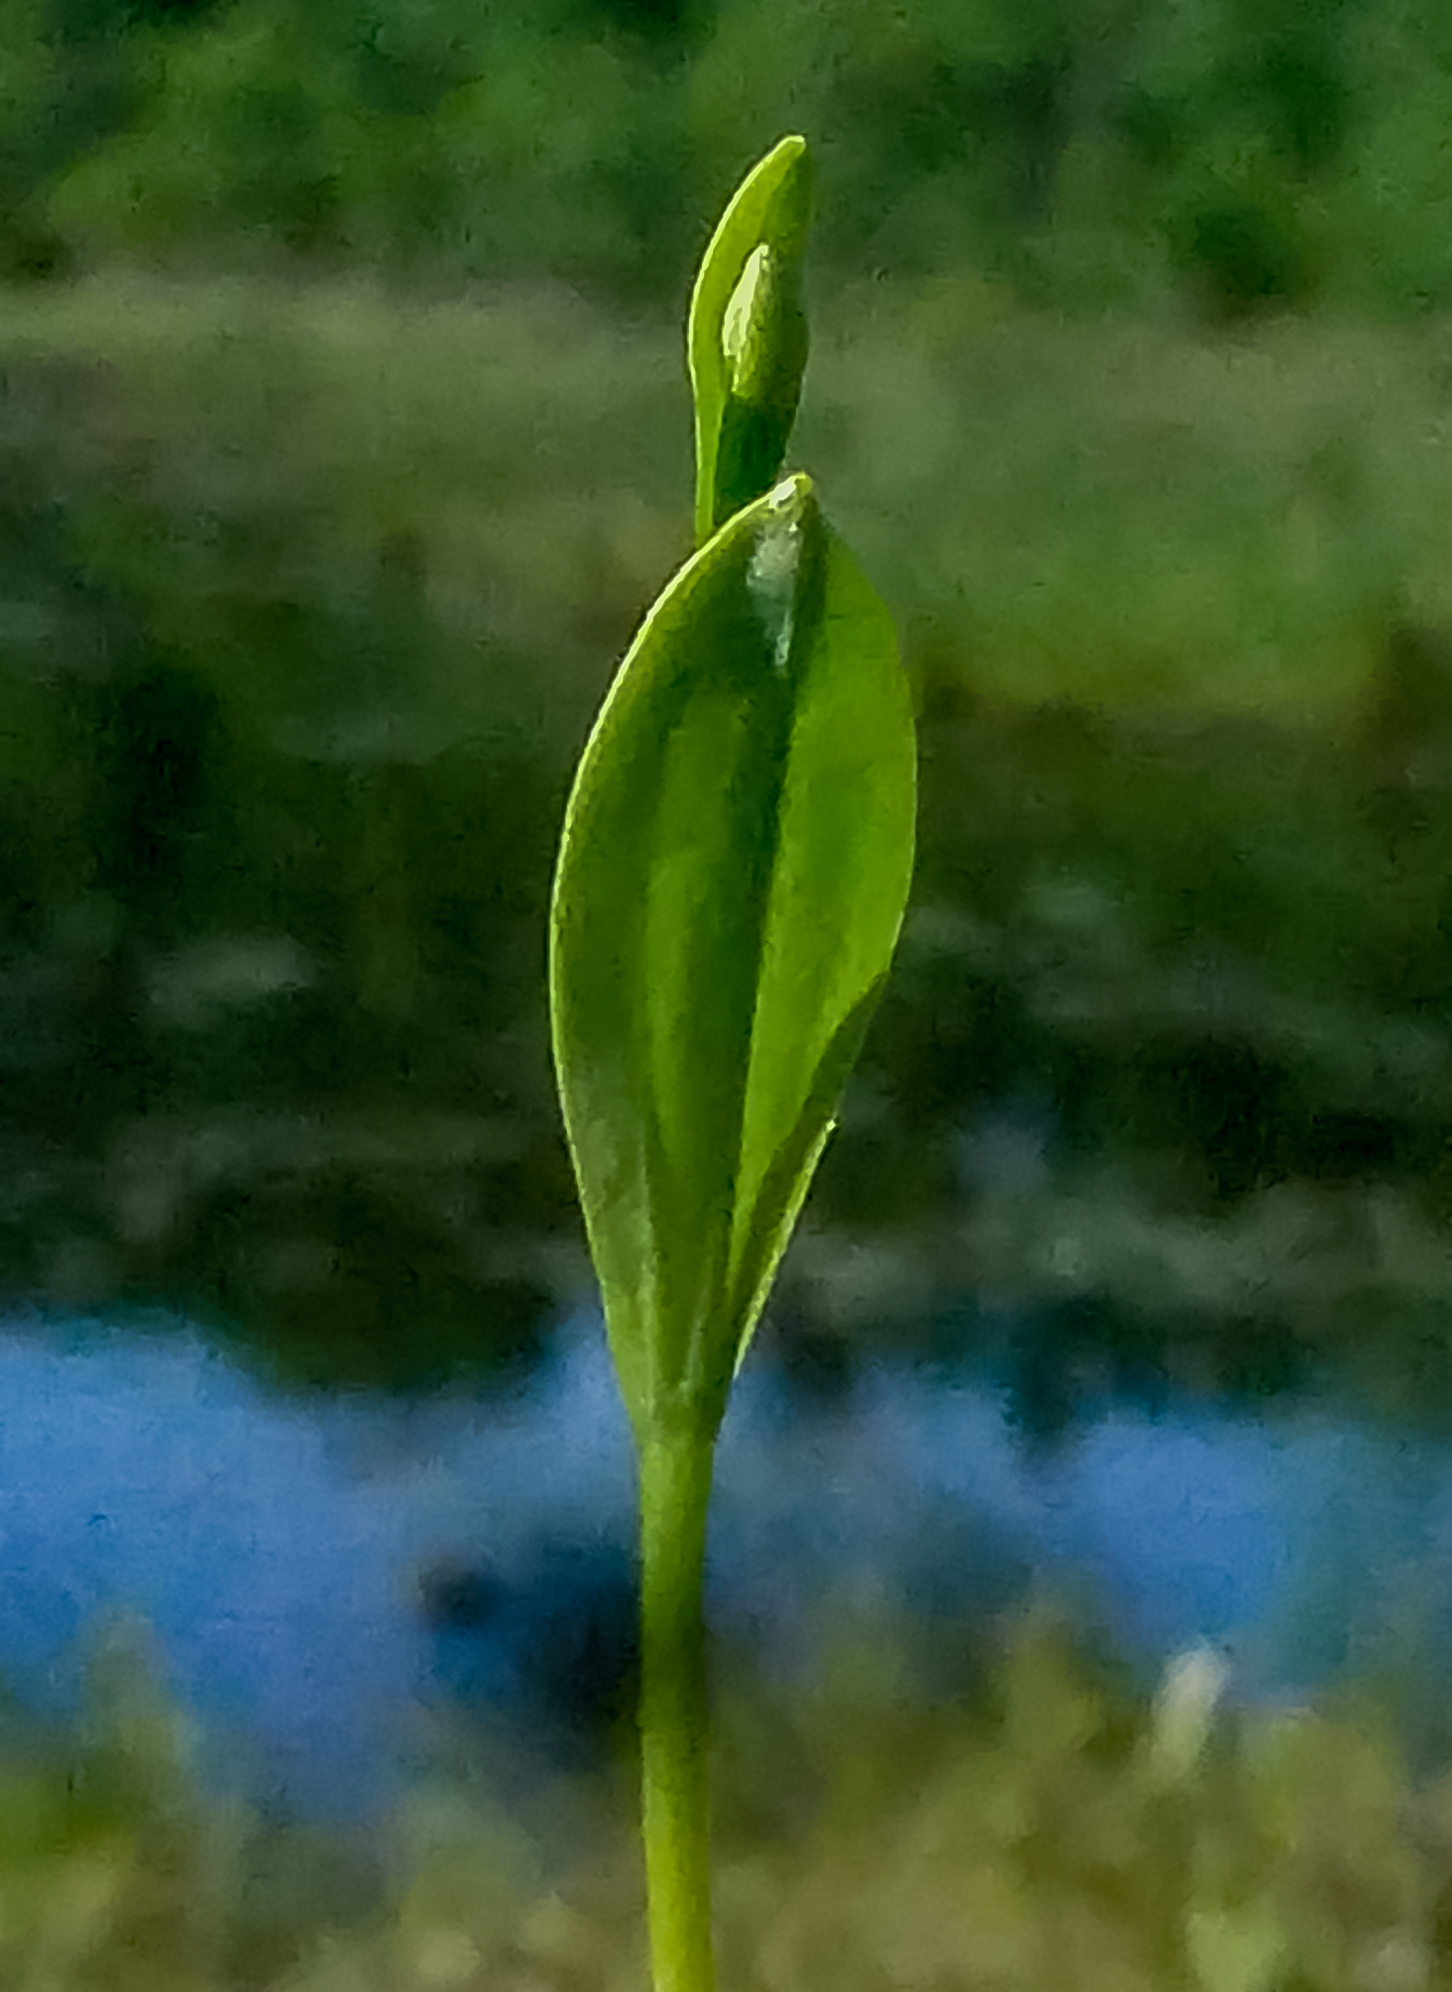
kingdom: Plantae
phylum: Tracheophyta
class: Liliopsida
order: Asparagales
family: Orchidaceae
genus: Pogonia
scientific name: Pogonia ophioglossoides
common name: Rose pogonia
